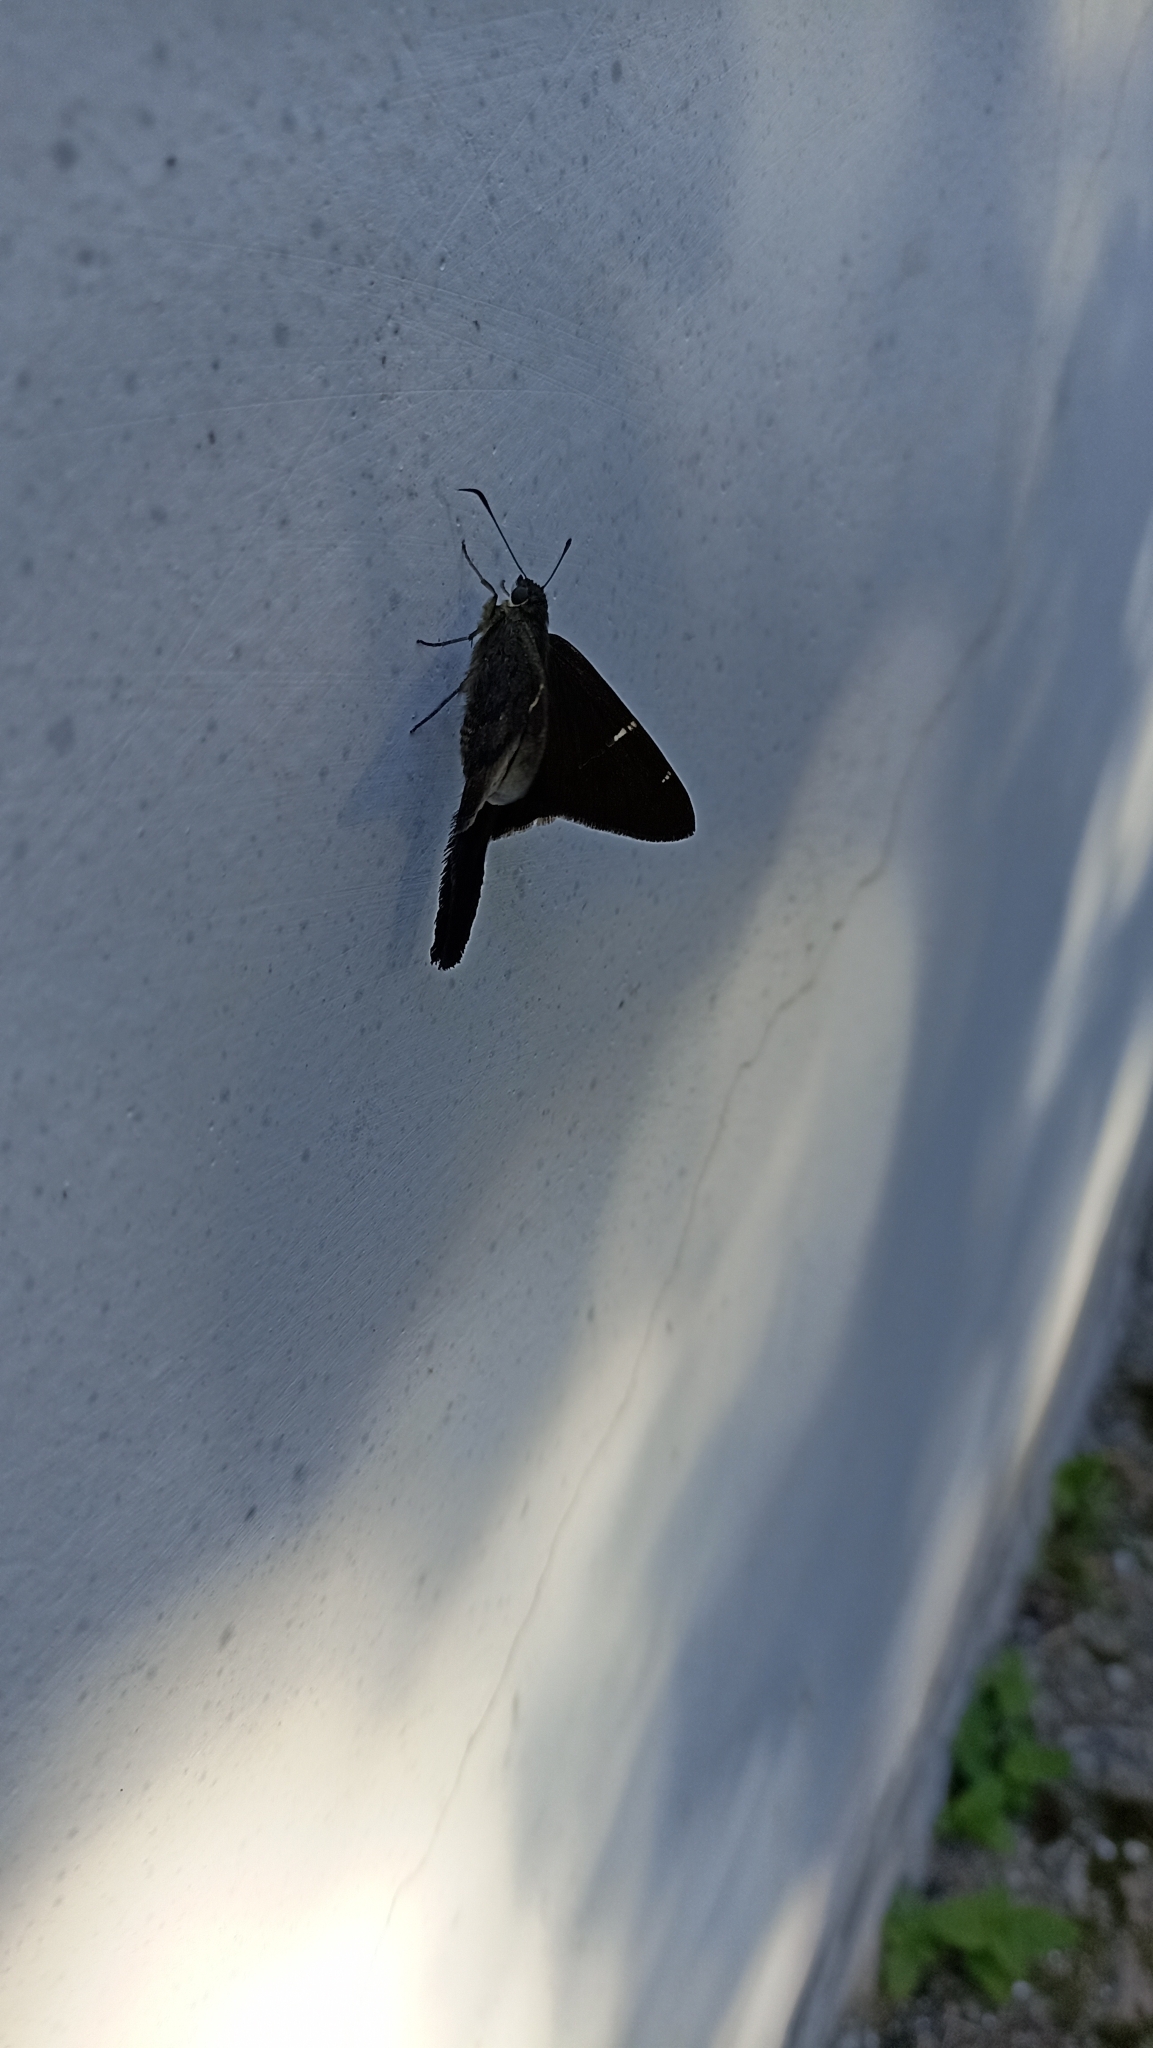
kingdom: Animalia
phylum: Arthropoda
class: Insecta
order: Lepidoptera
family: Hesperiidae
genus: Urbanus
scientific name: Urbanus simplicius
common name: Plain longtail
